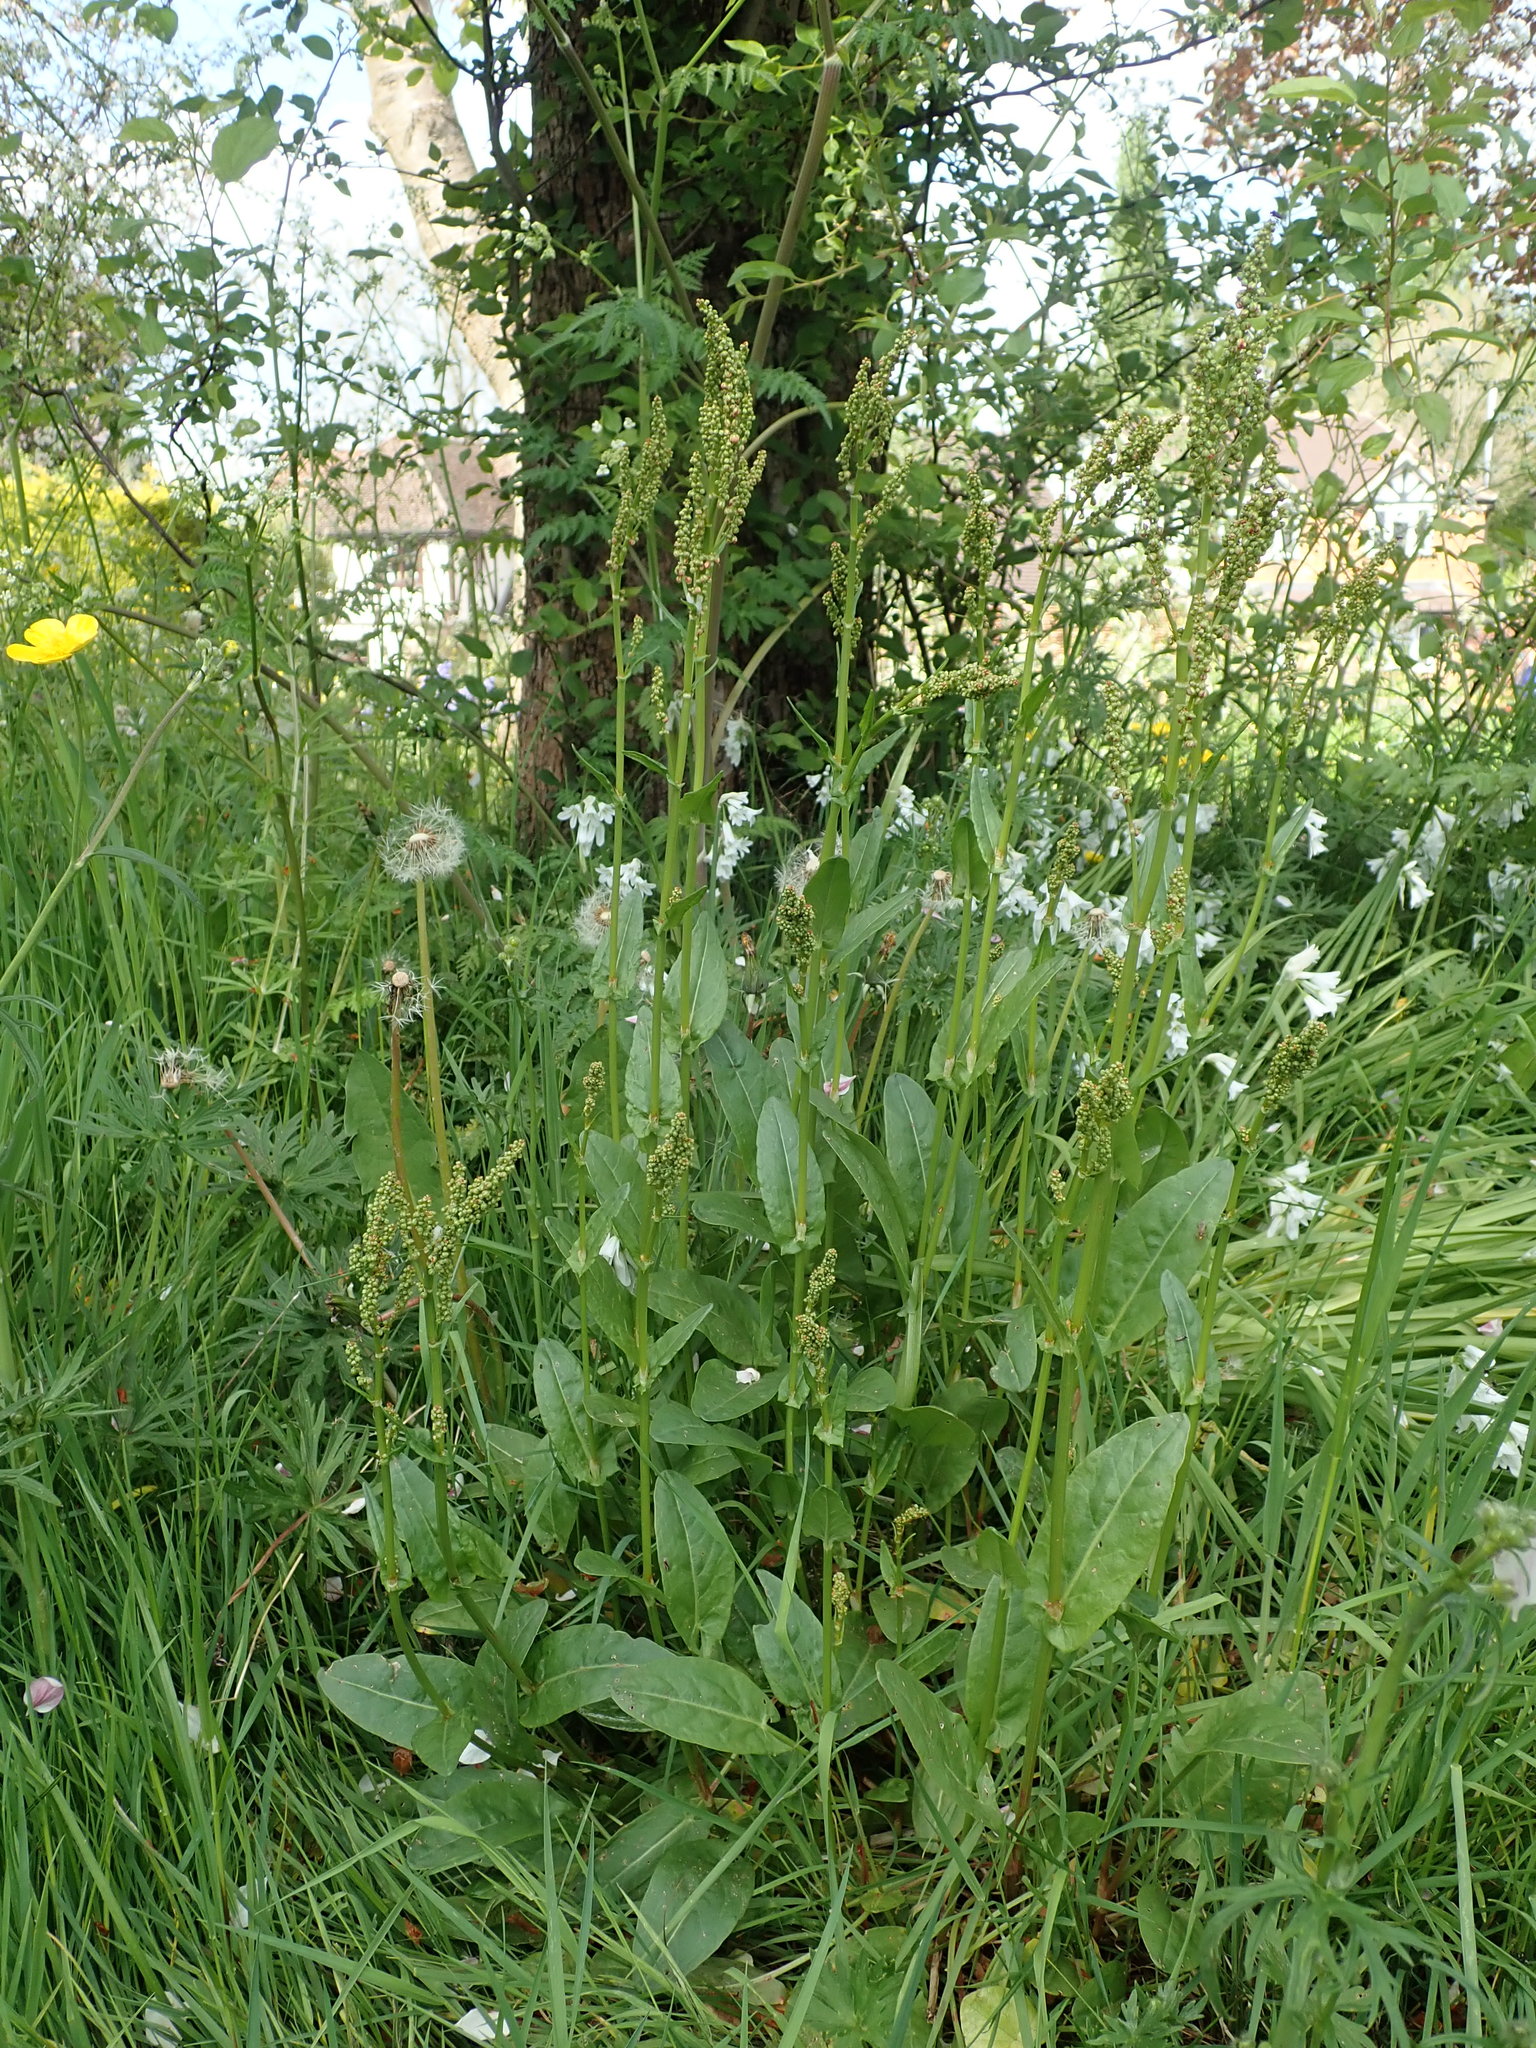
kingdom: Plantae
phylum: Tracheophyta
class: Magnoliopsida
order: Caryophyllales
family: Polygonaceae
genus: Rumex
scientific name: Rumex acetosa
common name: Garden sorrel
